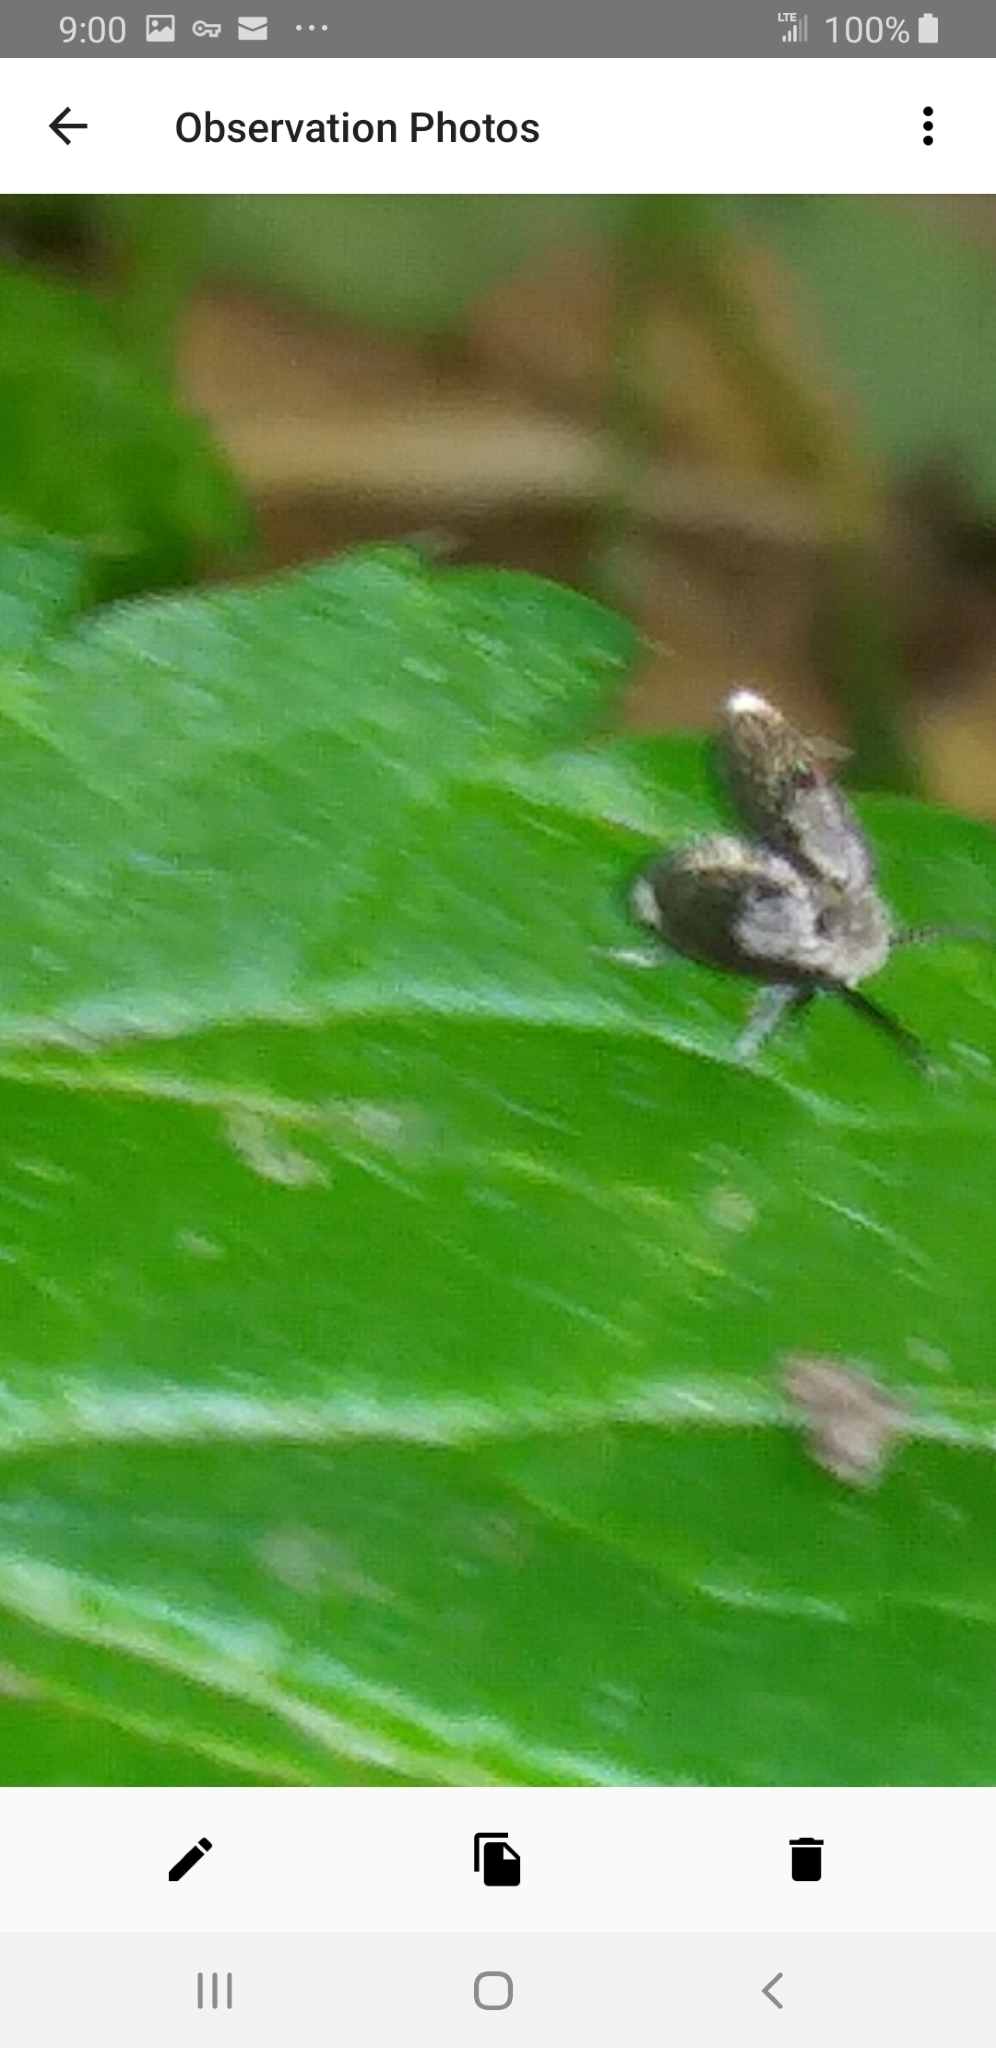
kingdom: Animalia
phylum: Arthropoda
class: Insecta
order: Diptera
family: Psychodidae
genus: Lepiseodina
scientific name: Lepiseodina
